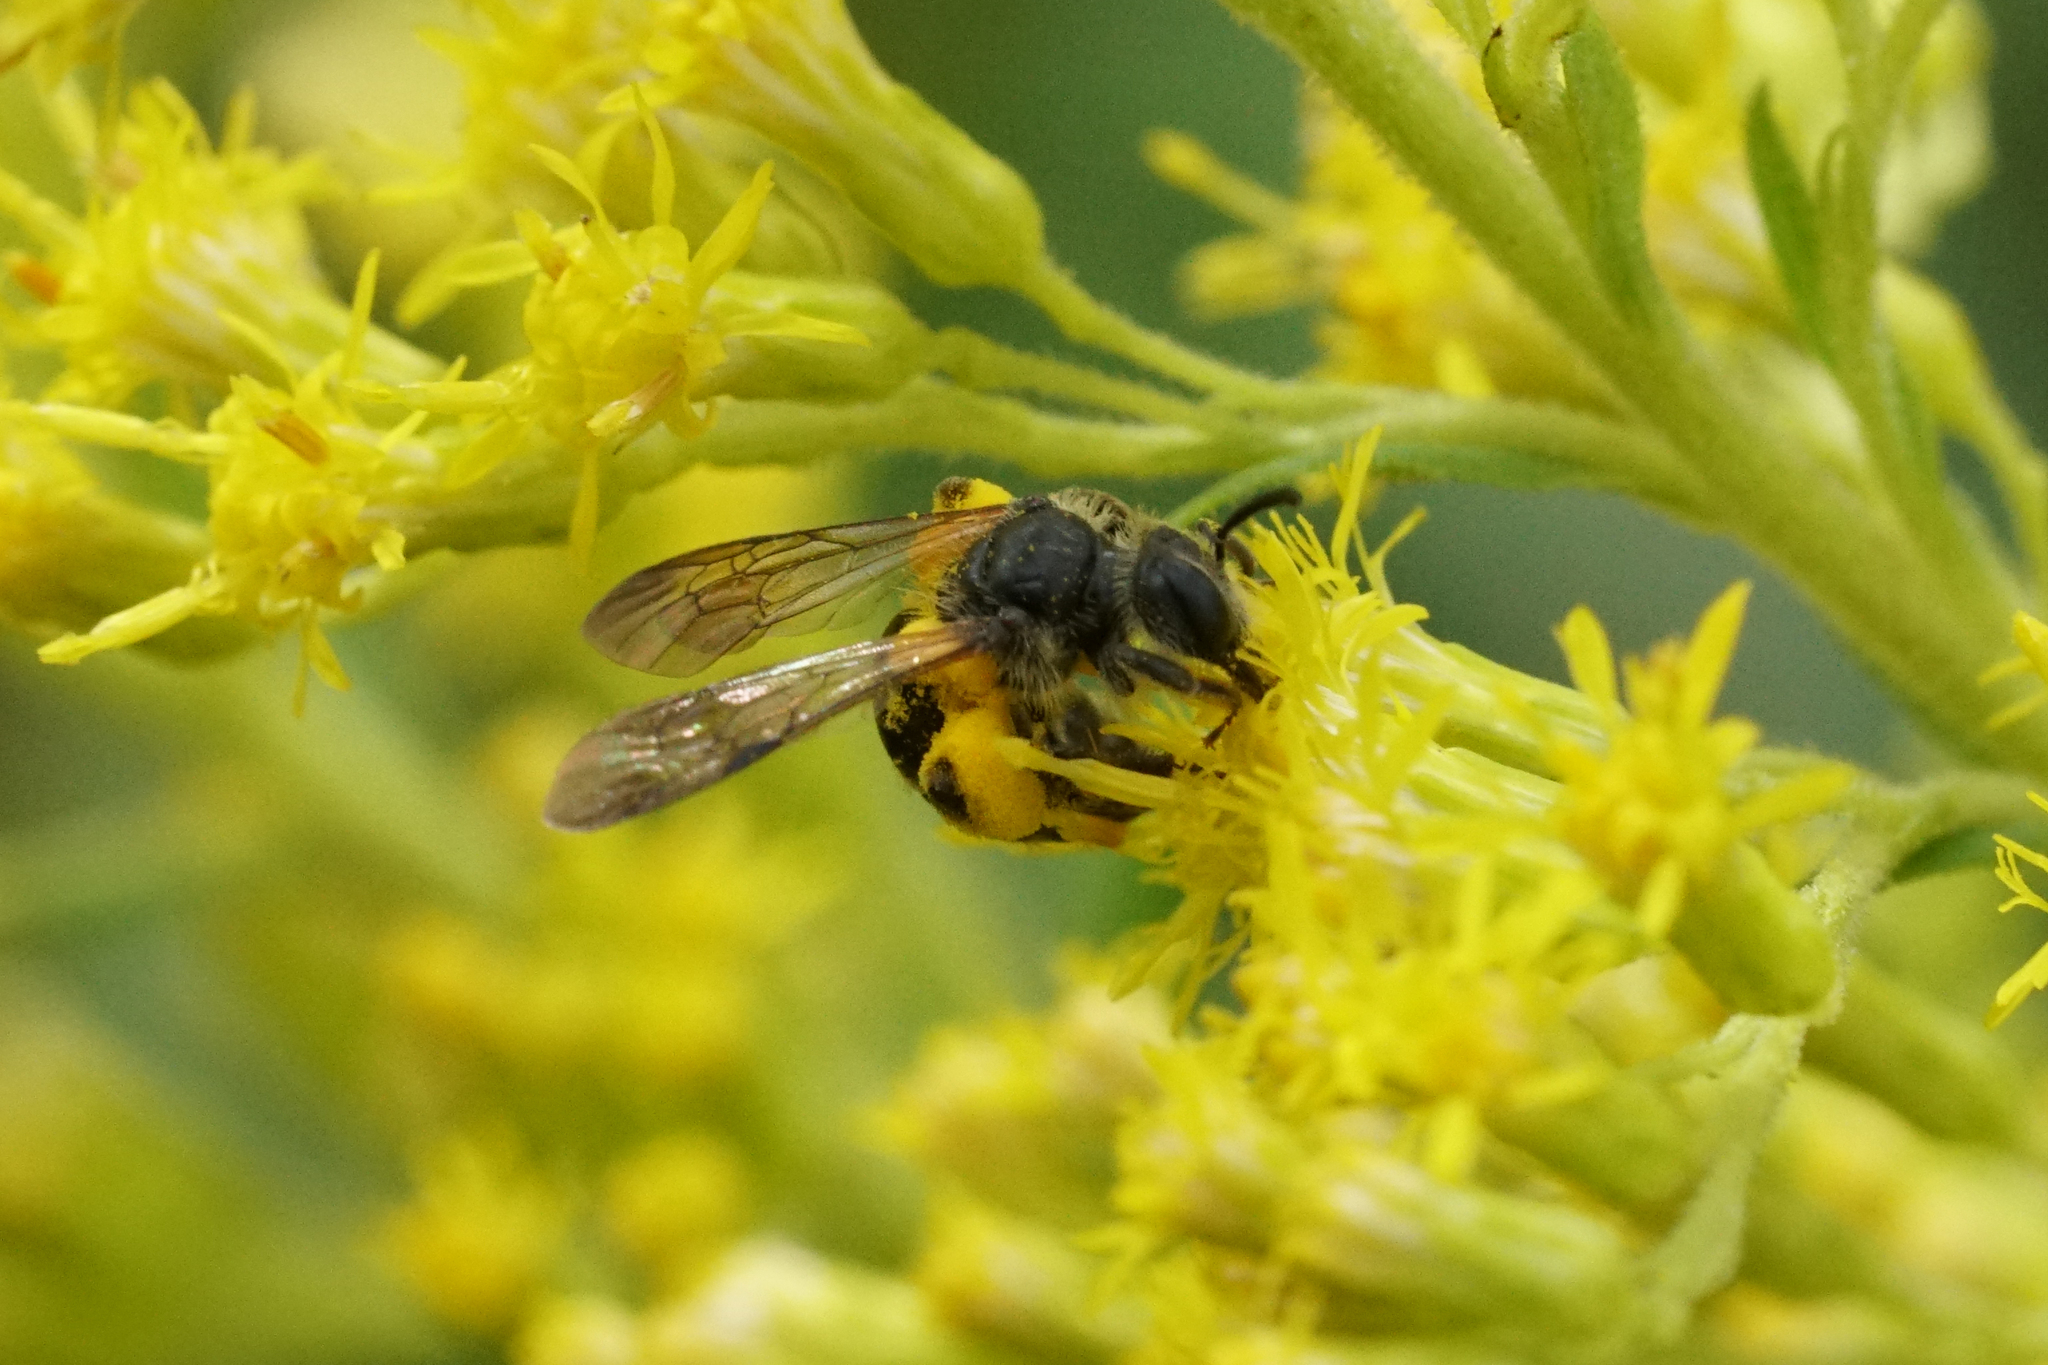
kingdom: Animalia
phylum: Arthropoda
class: Insecta
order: Hymenoptera
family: Andrenidae
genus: Andrena
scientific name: Andrena nubecula
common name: Cloudy-winged mining bee
